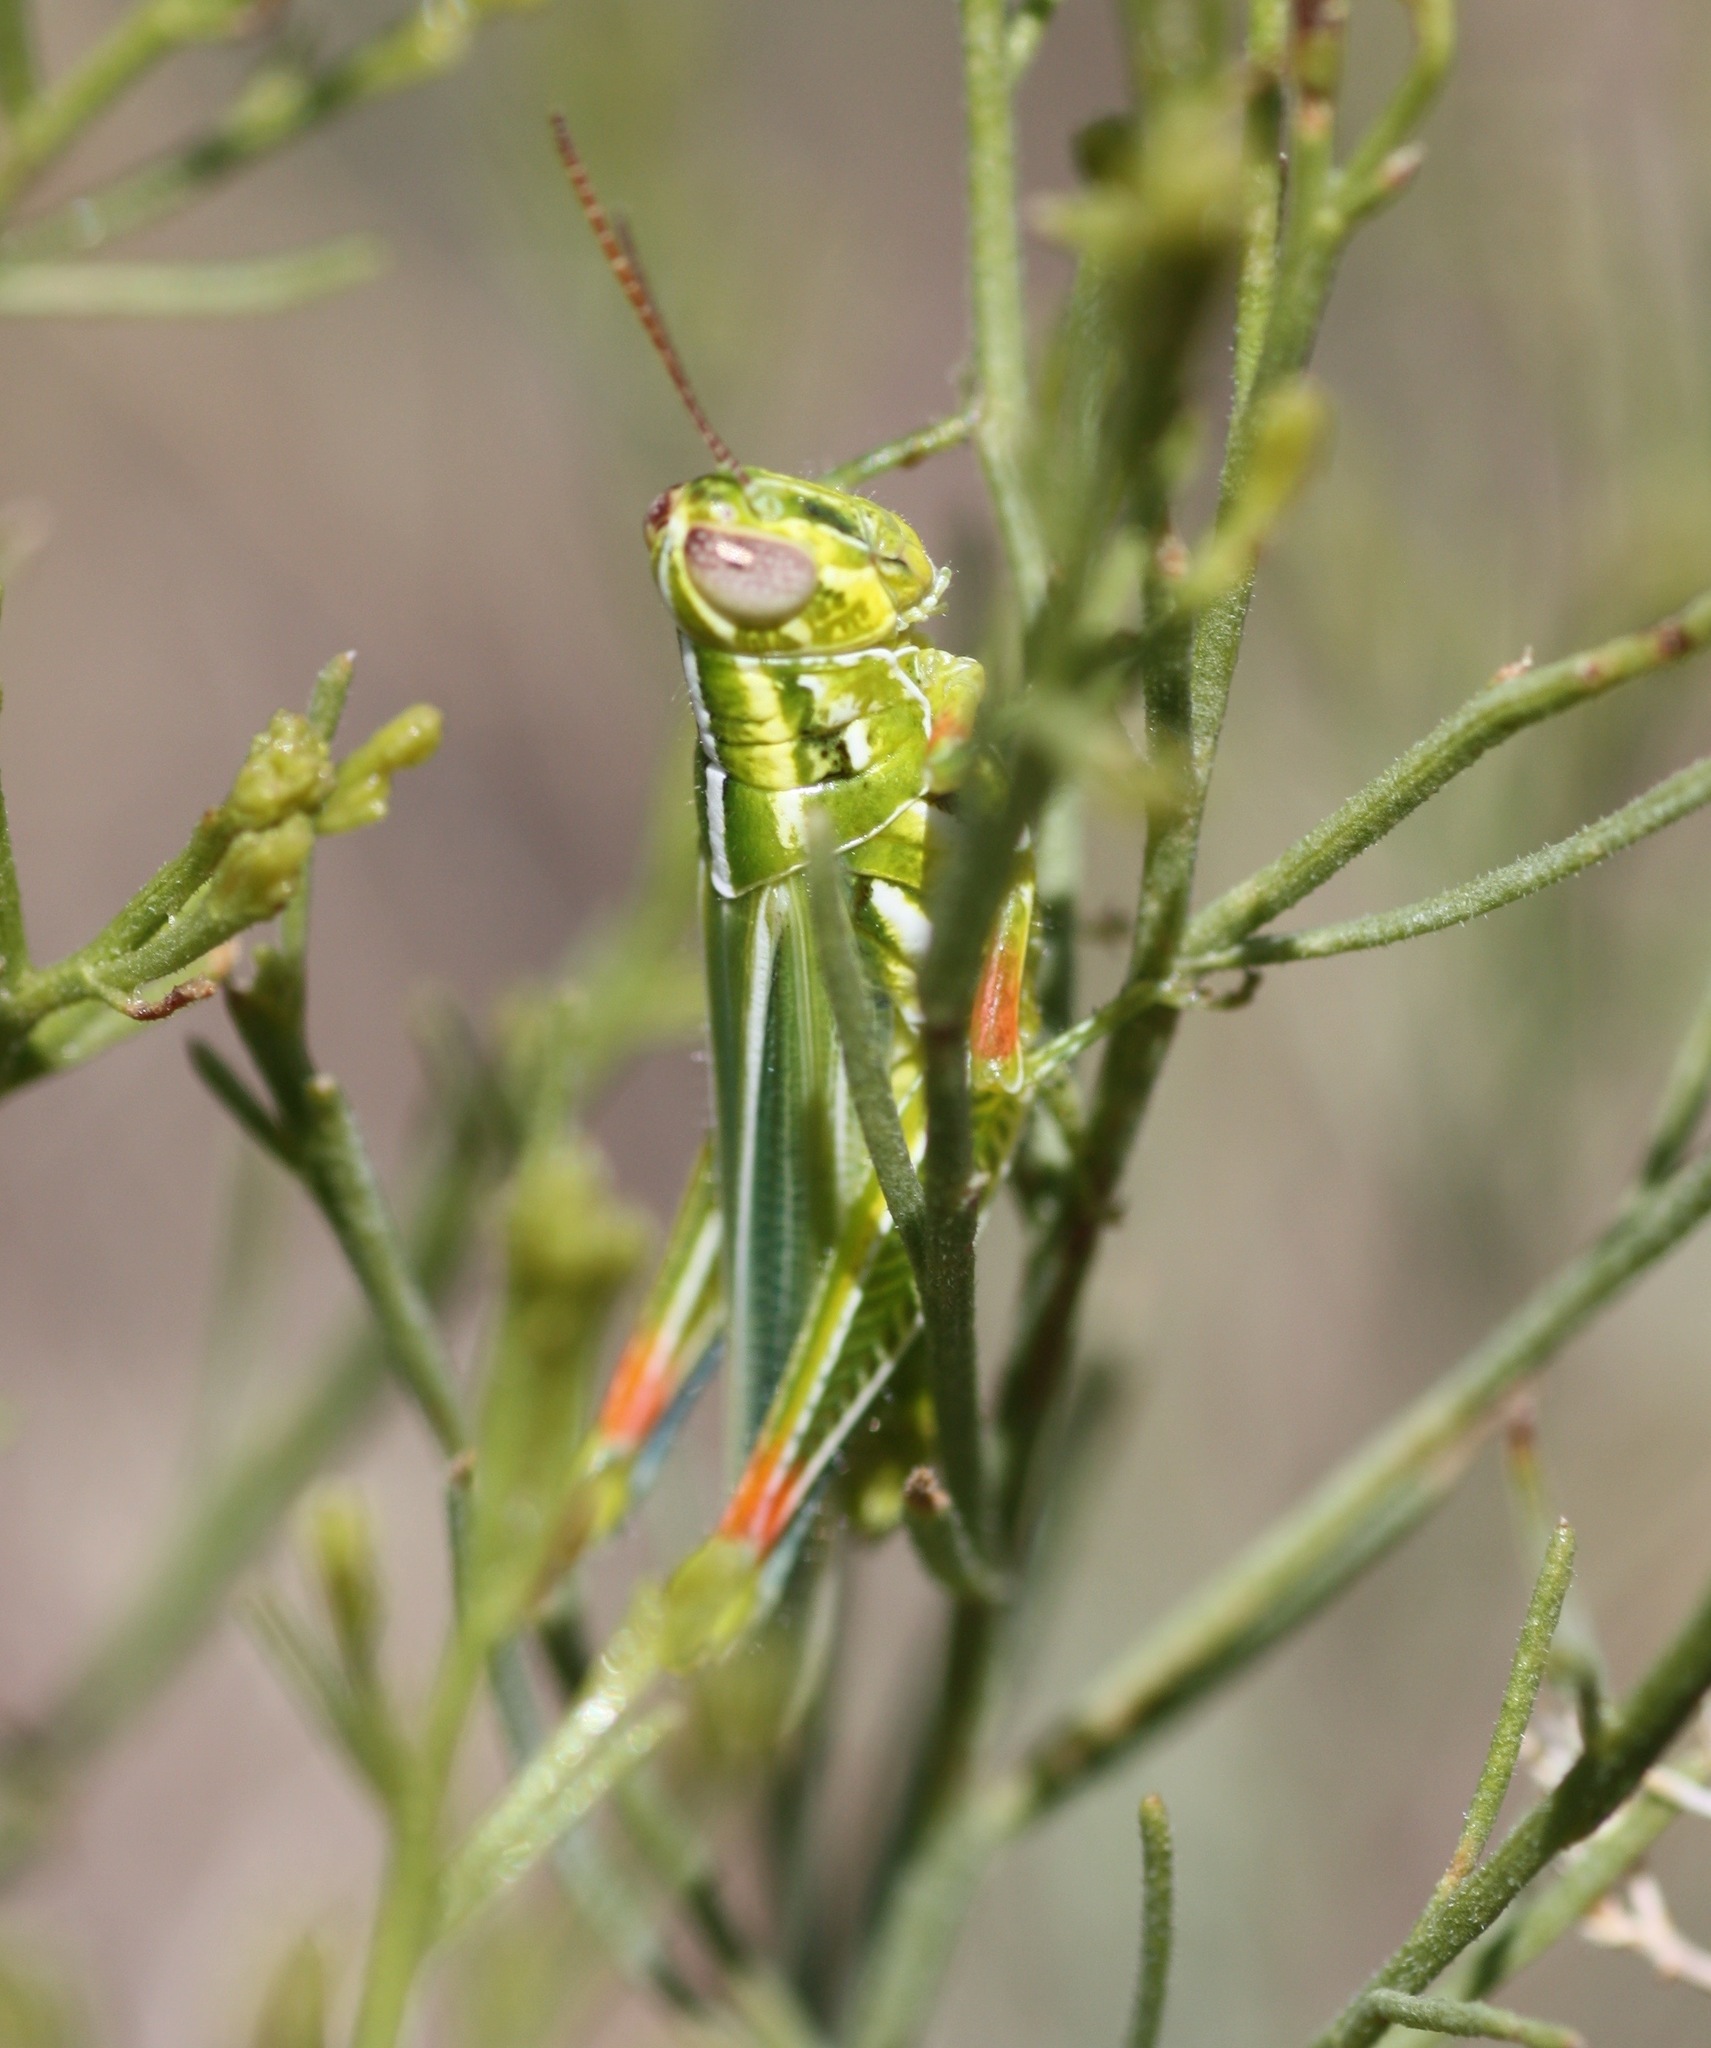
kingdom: Animalia
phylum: Arthropoda
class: Insecta
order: Orthoptera
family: Acrididae
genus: Hesperotettix
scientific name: Hesperotettix viridis
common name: Meadow purple-striped grasshopper
